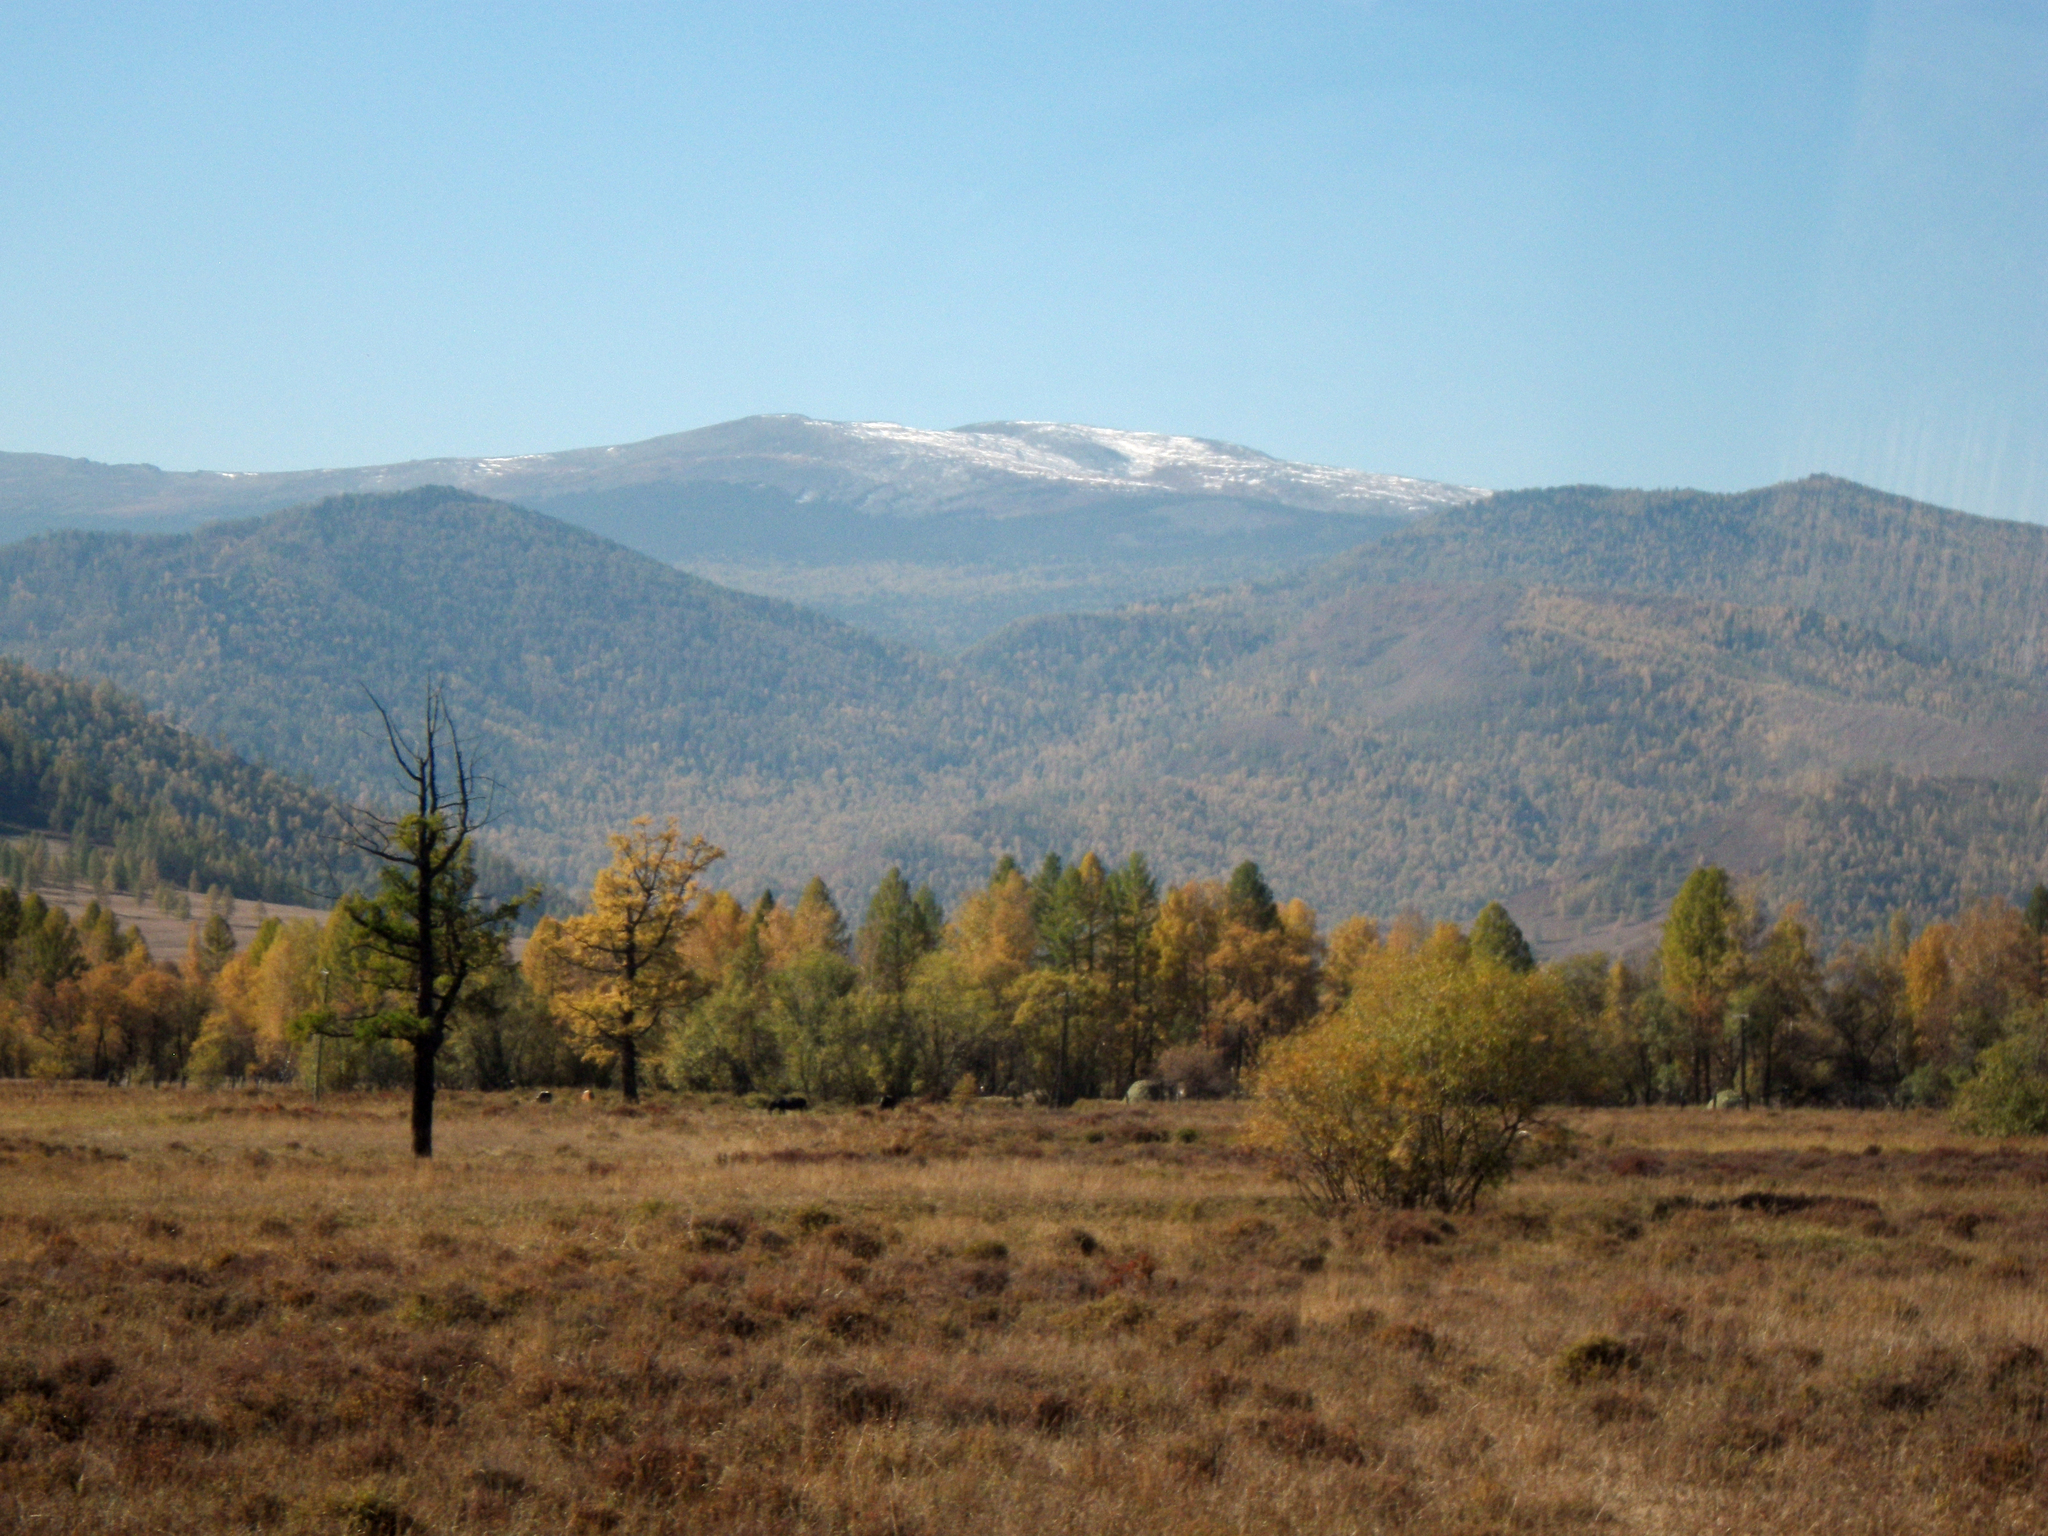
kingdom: Plantae
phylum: Tracheophyta
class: Pinopsida
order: Pinales
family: Pinaceae
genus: Larix
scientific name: Larix sibirica
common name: Siberian larch
